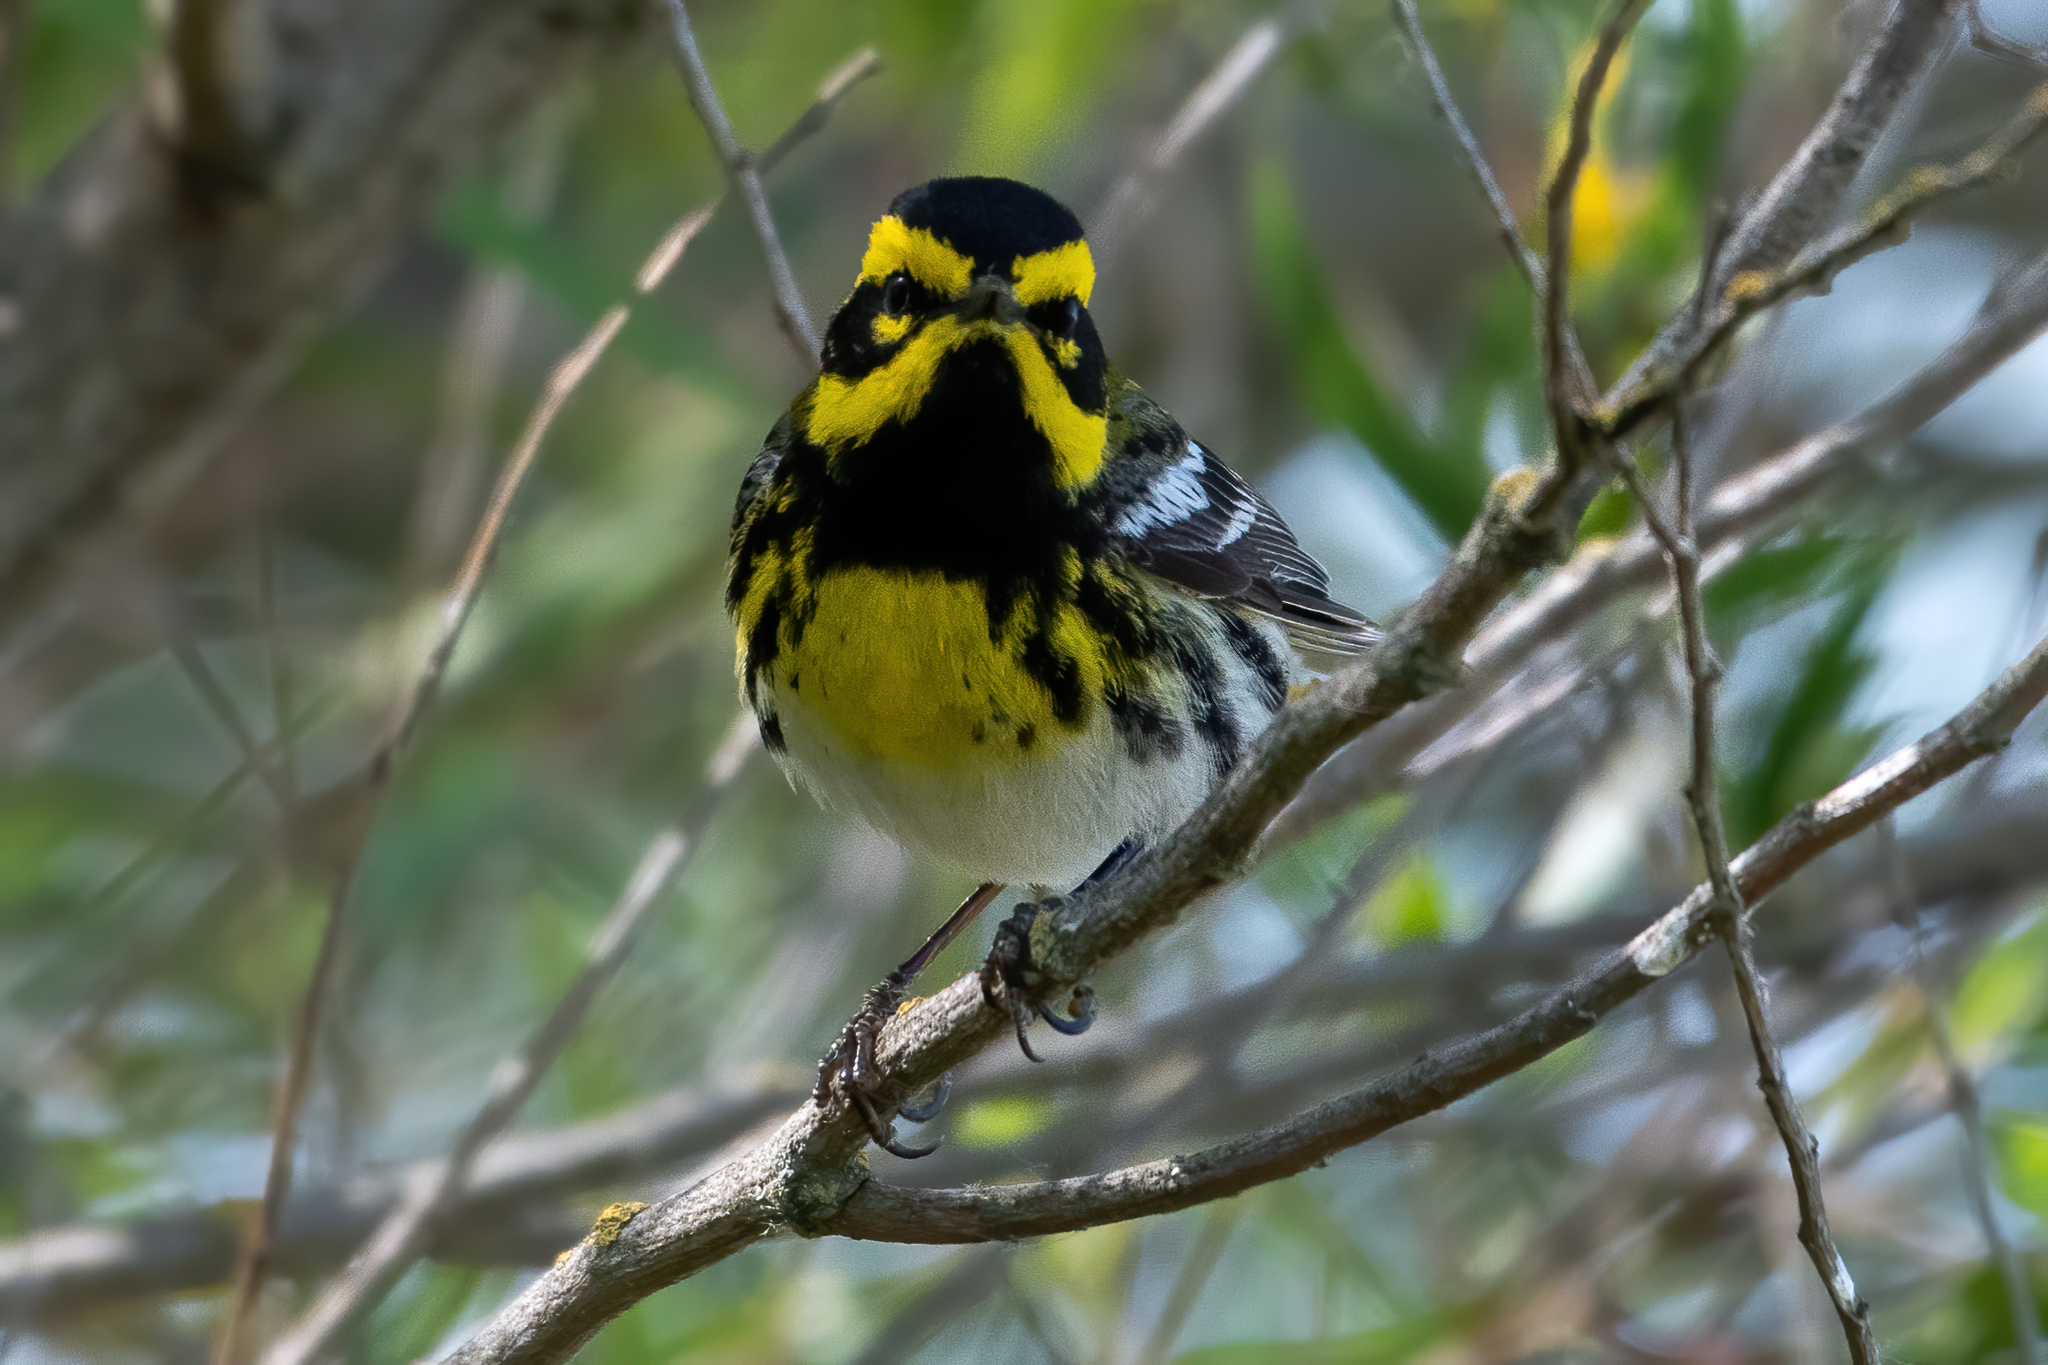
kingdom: Animalia
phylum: Chordata
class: Aves
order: Passeriformes
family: Parulidae
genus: Setophaga
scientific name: Setophaga townsendi
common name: Townsend's warbler
